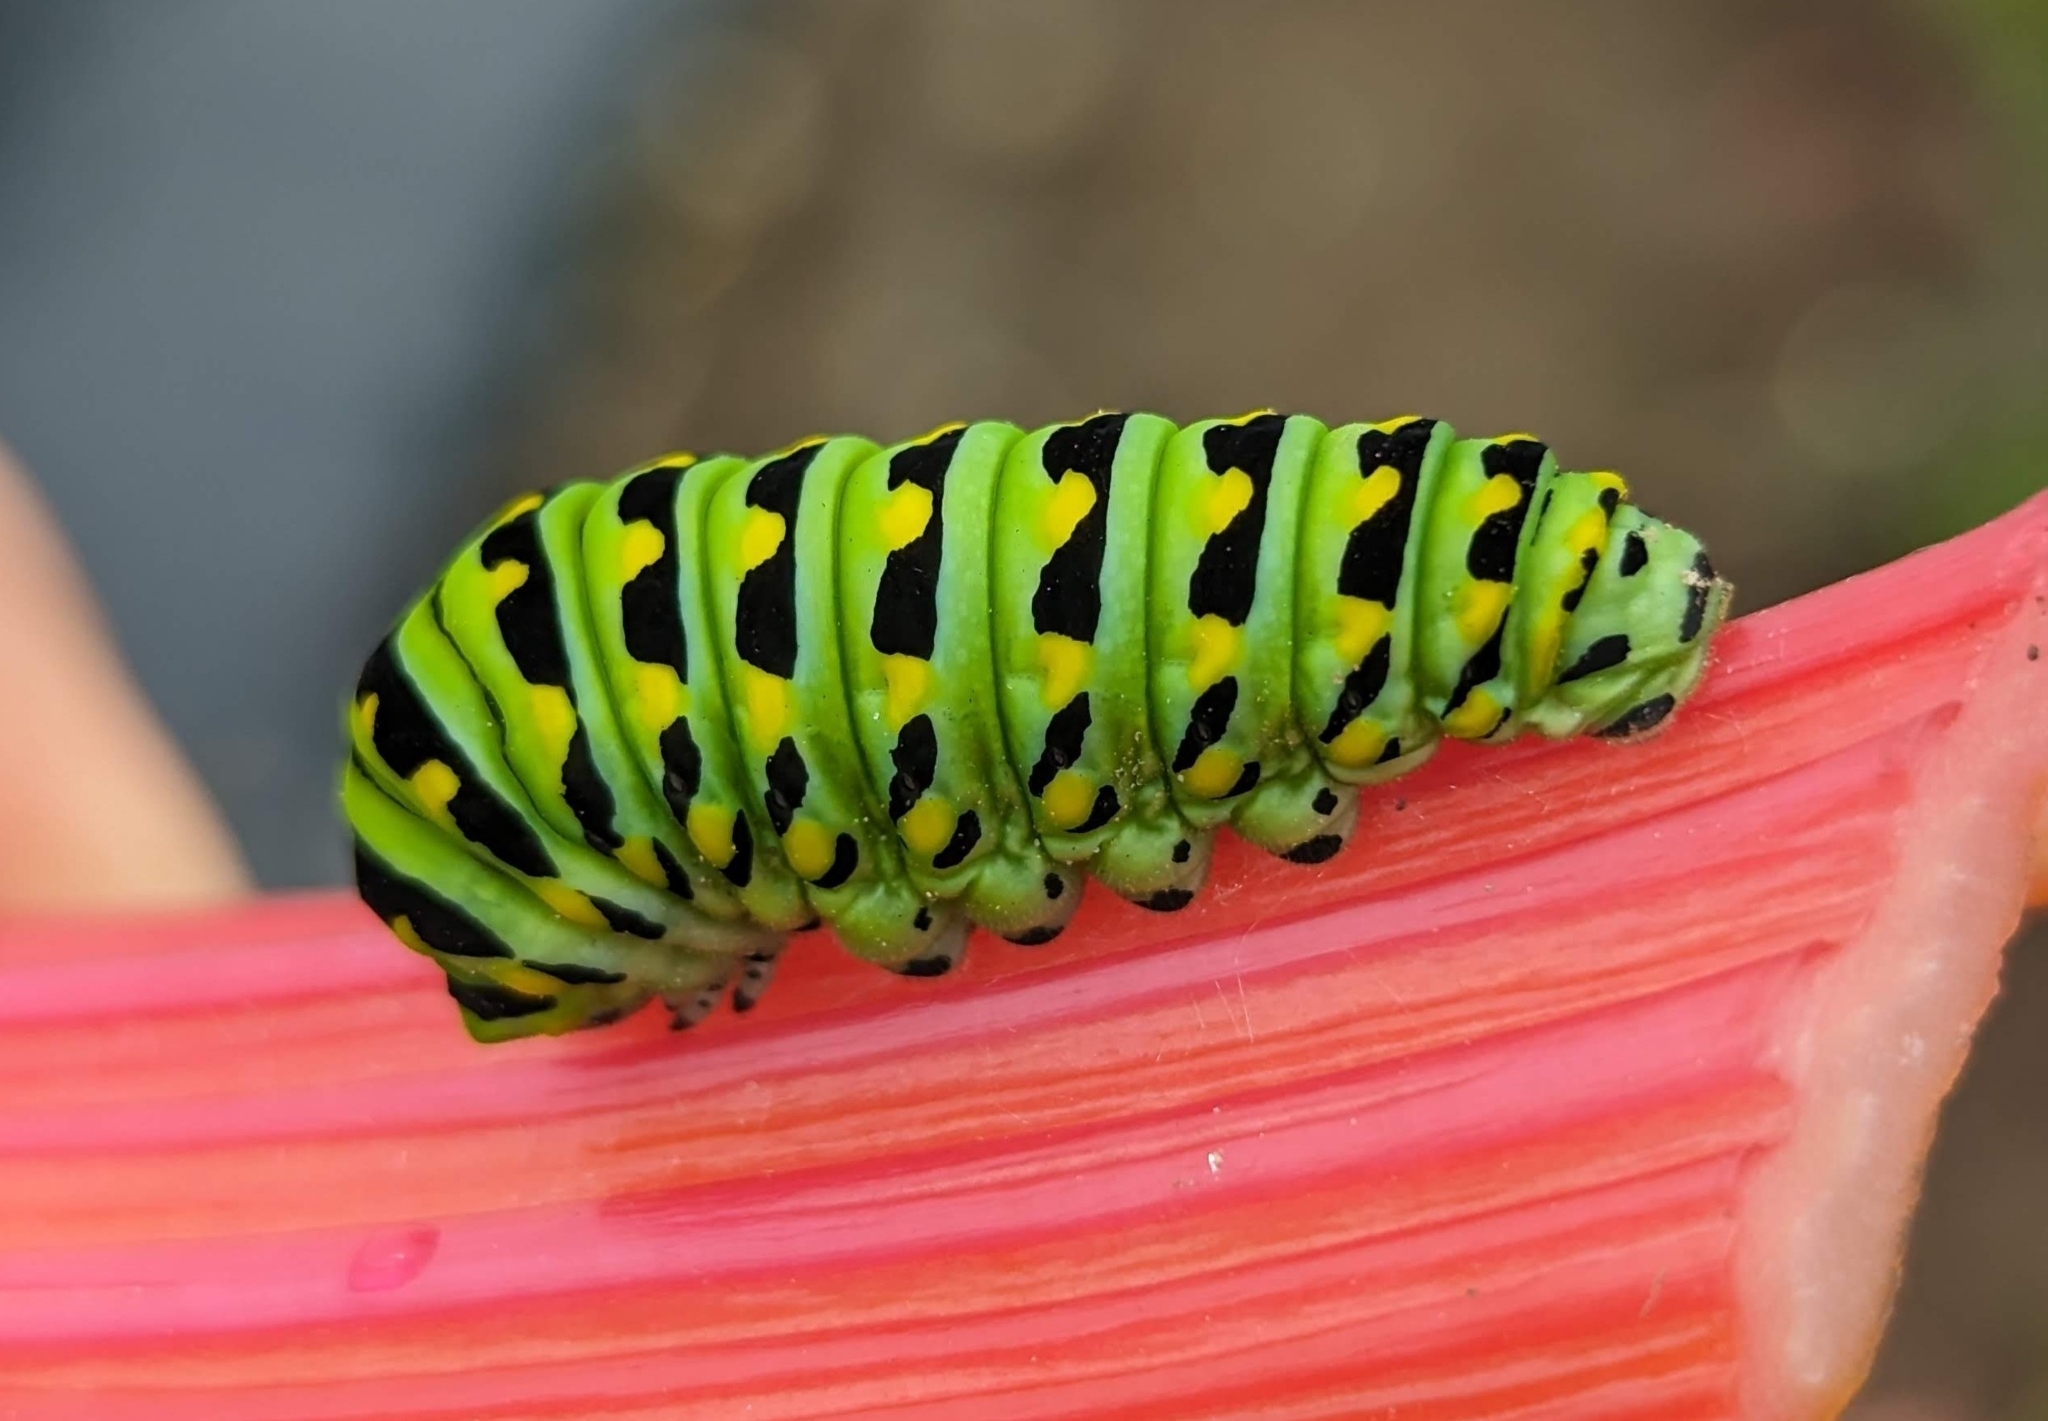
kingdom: Animalia
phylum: Arthropoda
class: Insecta
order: Lepidoptera
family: Papilionidae
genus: Papilio
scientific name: Papilio polyxenes
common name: Black swallowtail
